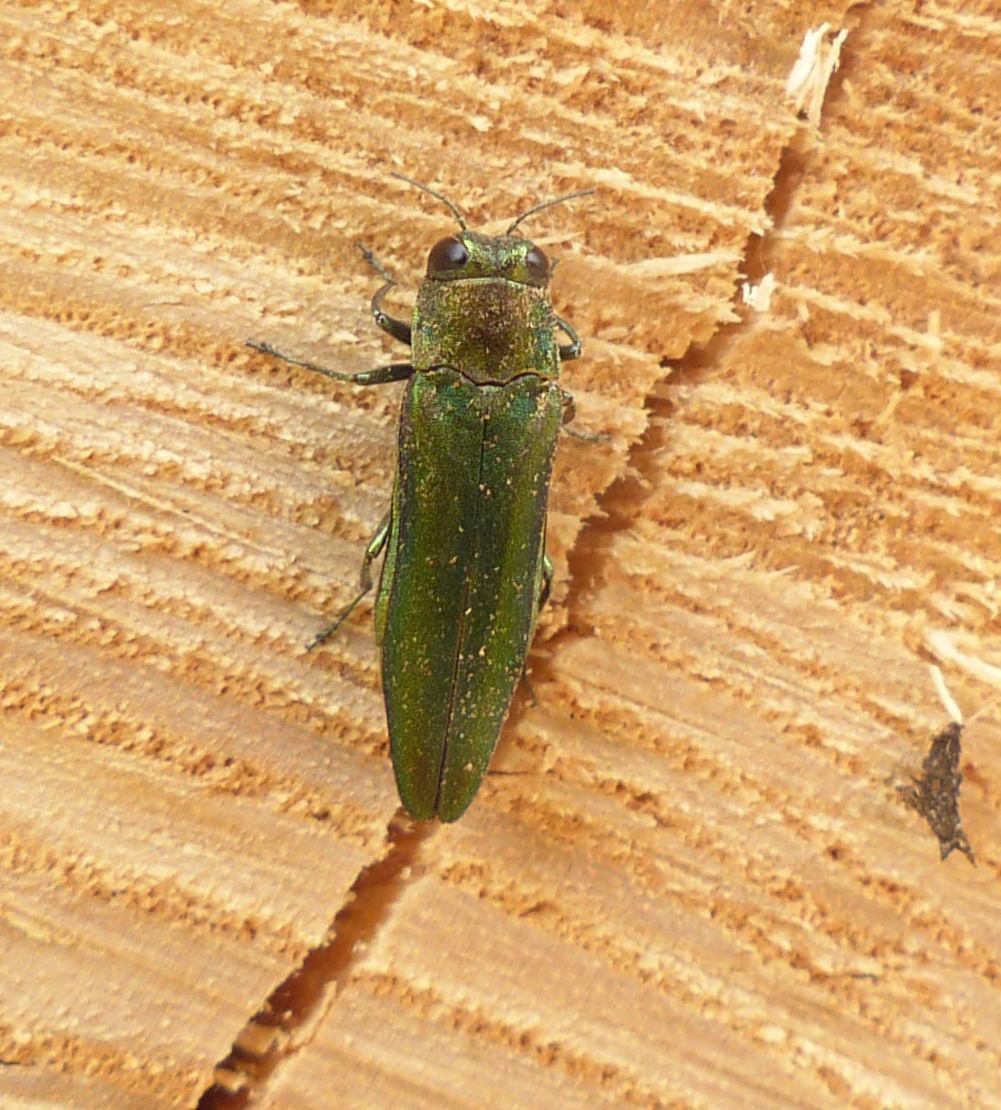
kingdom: Animalia
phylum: Arthropoda
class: Insecta
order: Coleoptera
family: Buprestidae
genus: Agrilus
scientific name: Agrilus planipennis
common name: Emerald ash borer
